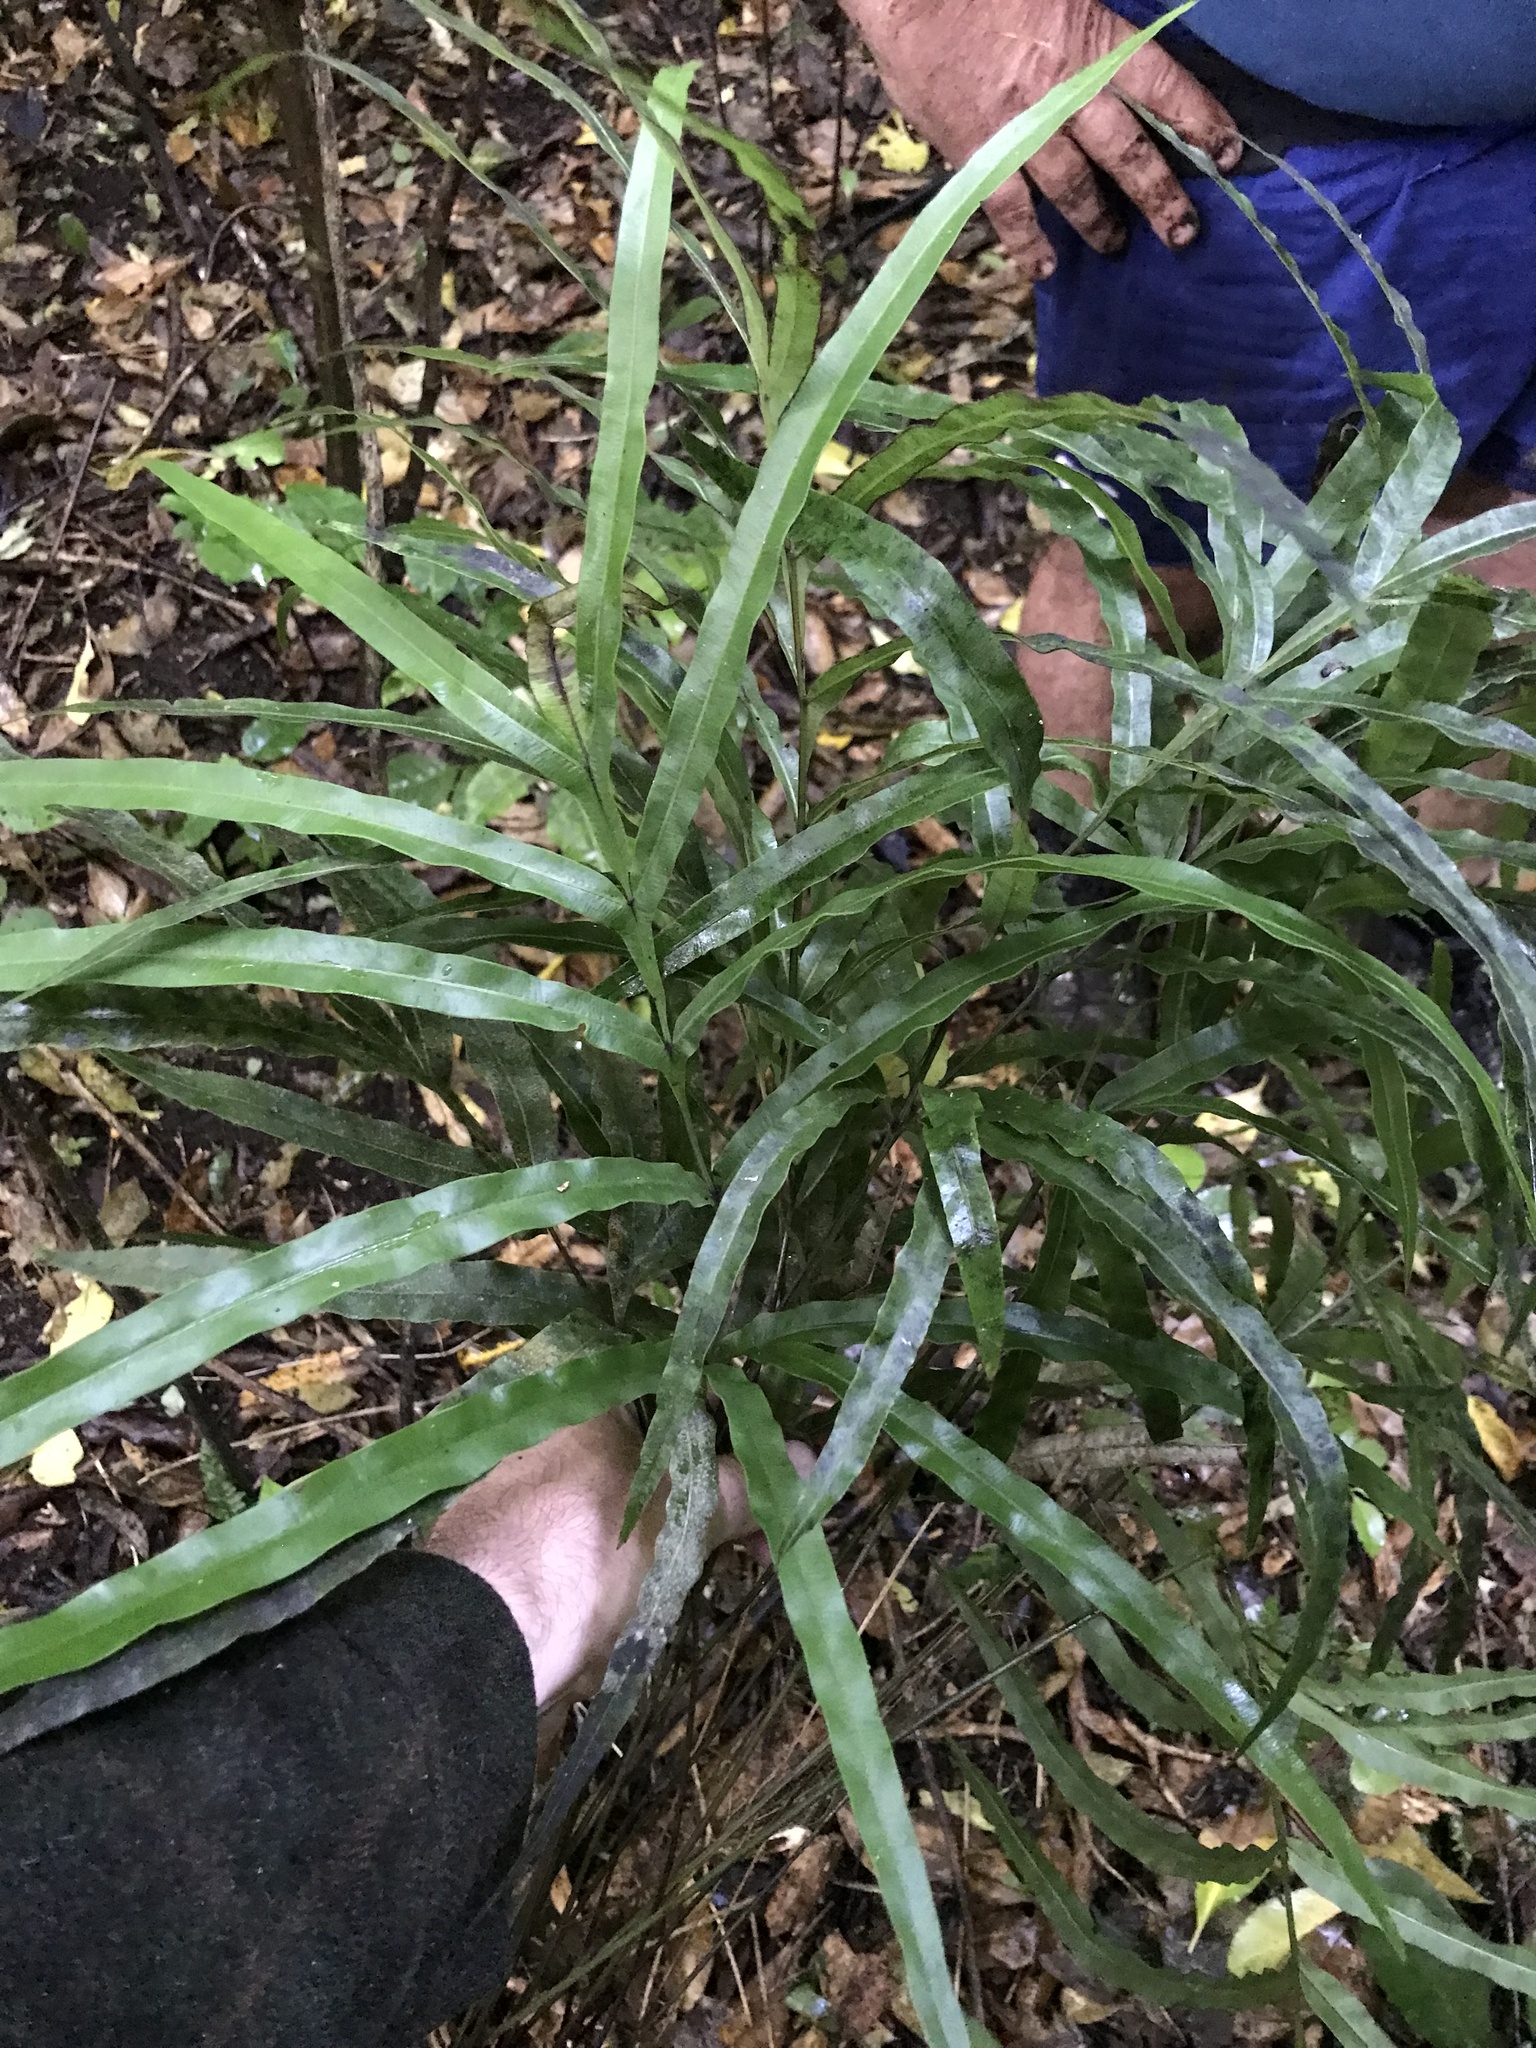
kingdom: Plantae
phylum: Tracheophyta
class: Polypodiopsida
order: Polypodiales
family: Pteridaceae
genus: Pteris
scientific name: Pteris cretica
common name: Ribbon fern
